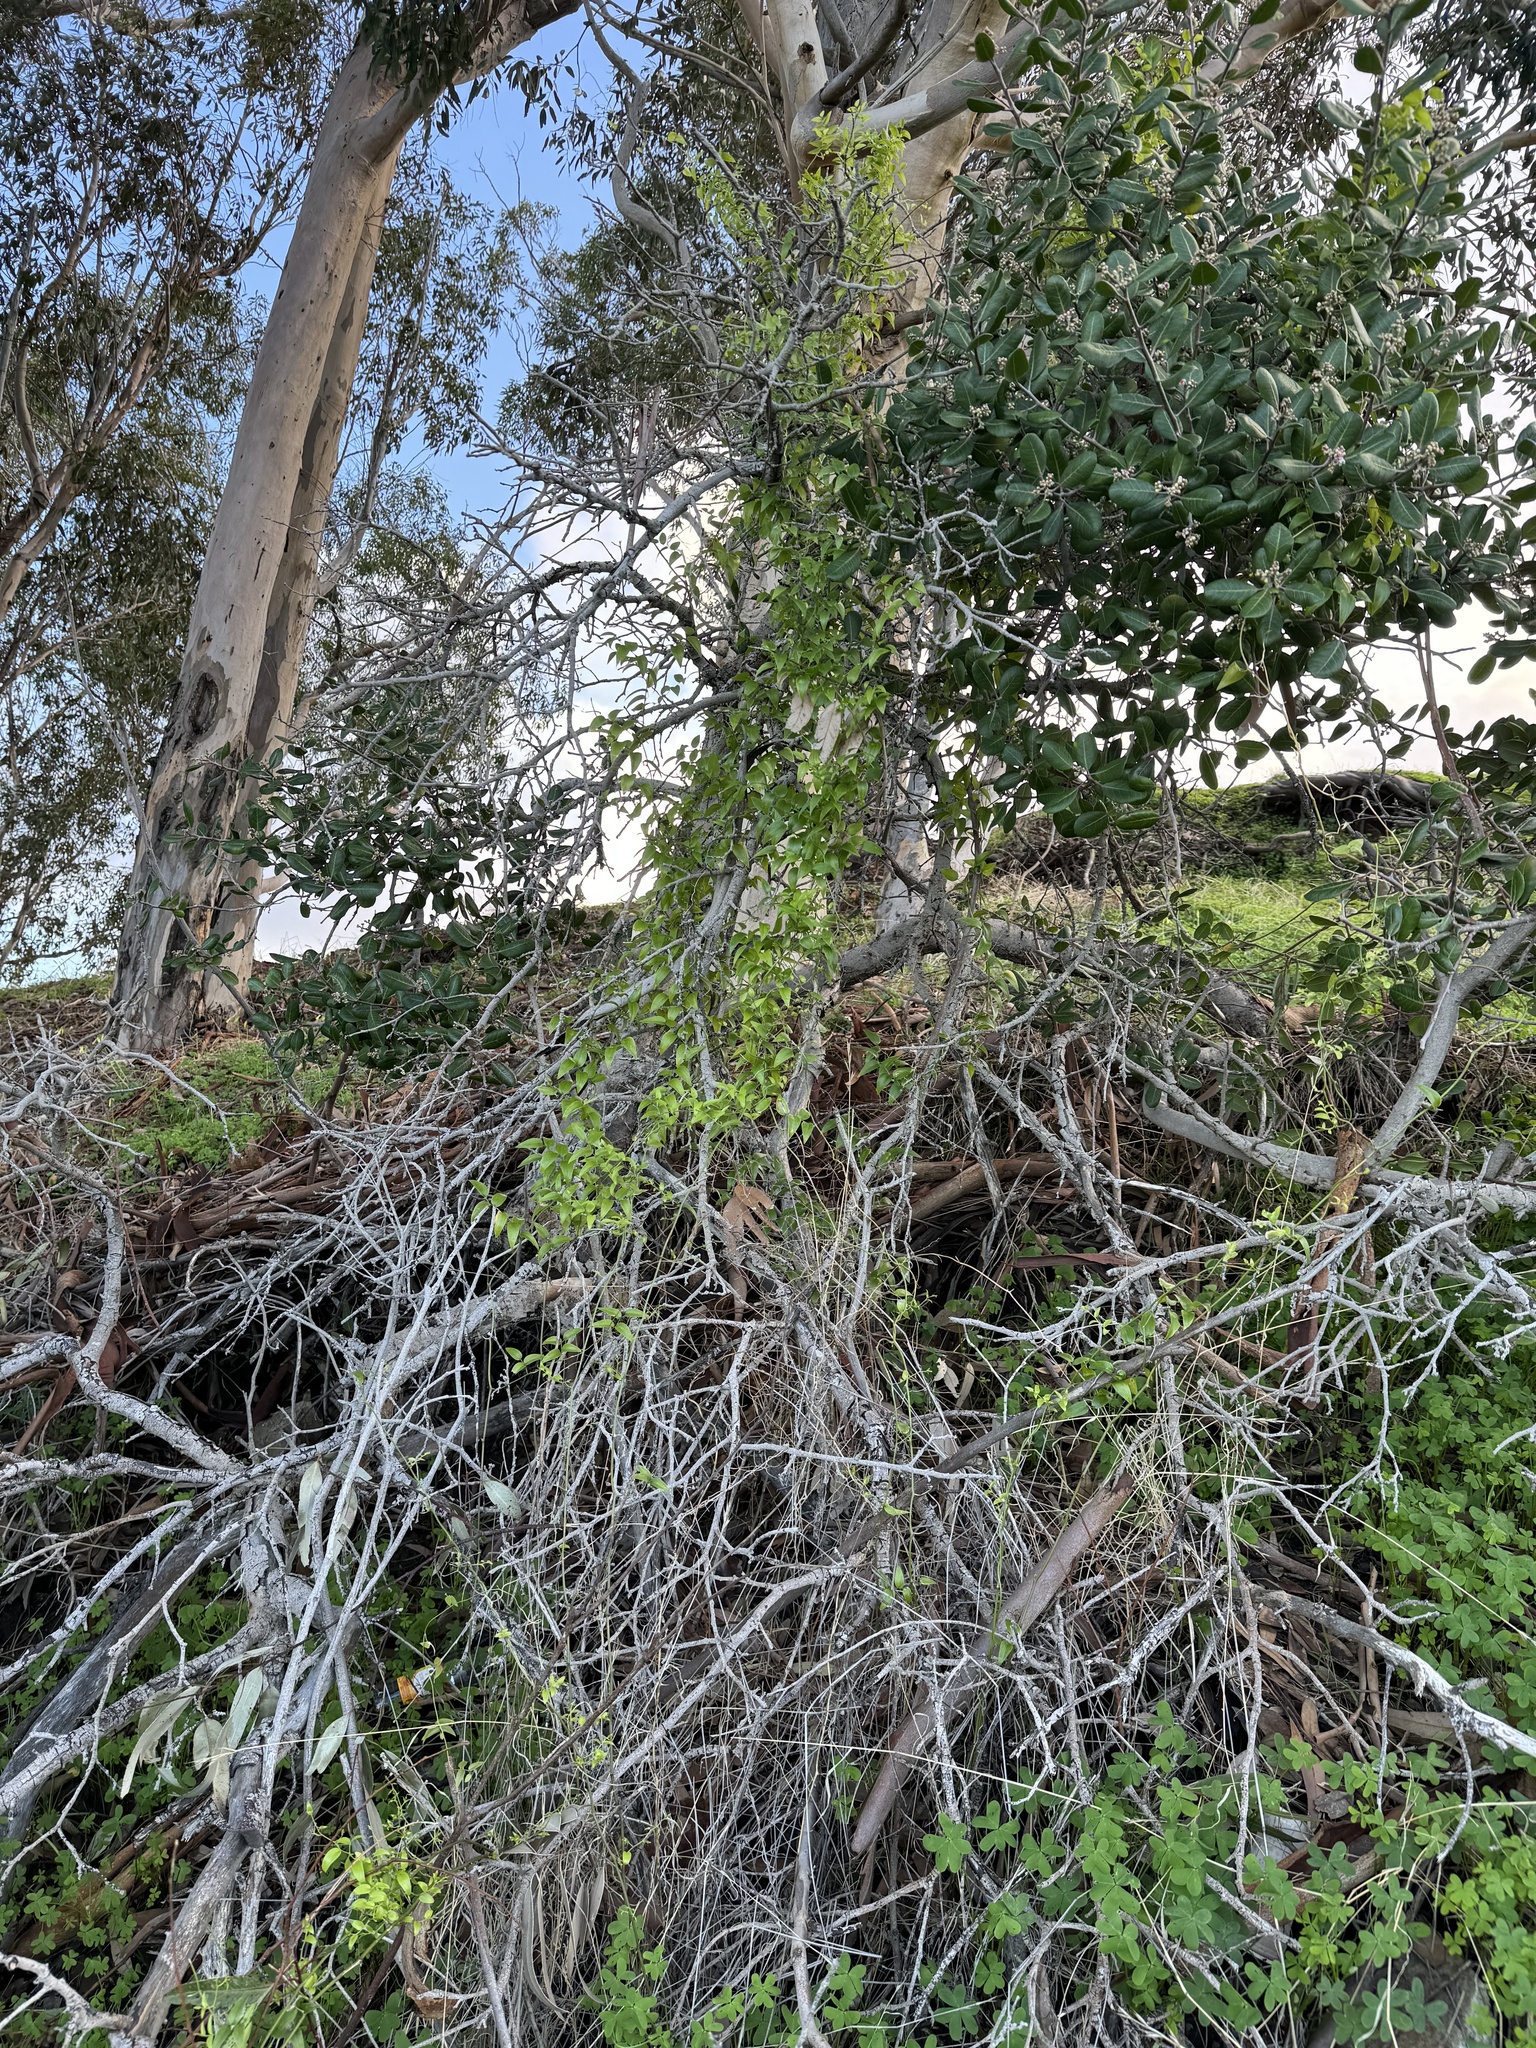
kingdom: Plantae
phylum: Tracheophyta
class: Liliopsida
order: Asparagales
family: Asparagaceae
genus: Asparagus
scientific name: Asparagus asparagoides
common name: African asparagus fern
